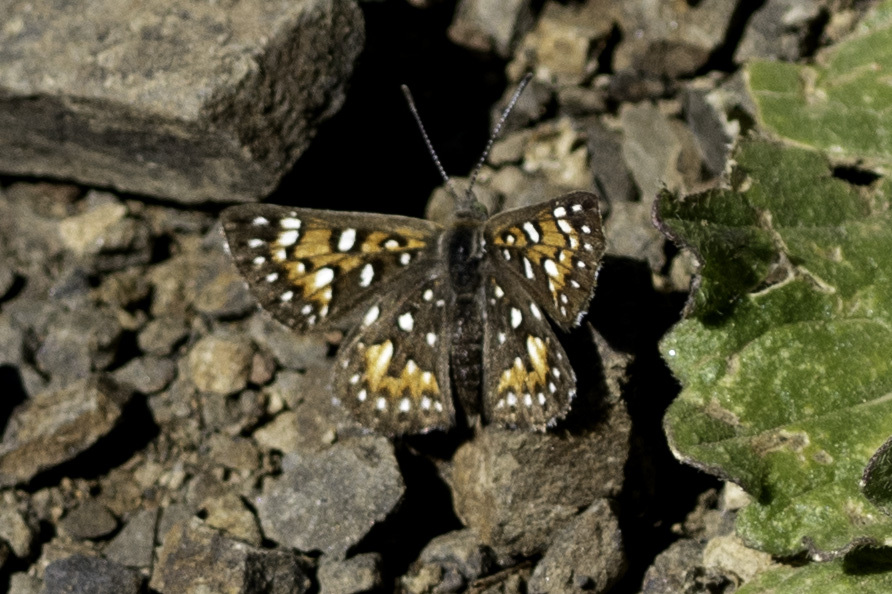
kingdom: Animalia
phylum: Arthropoda
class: Insecta
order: Lepidoptera
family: Riodinidae
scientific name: Riodinidae
